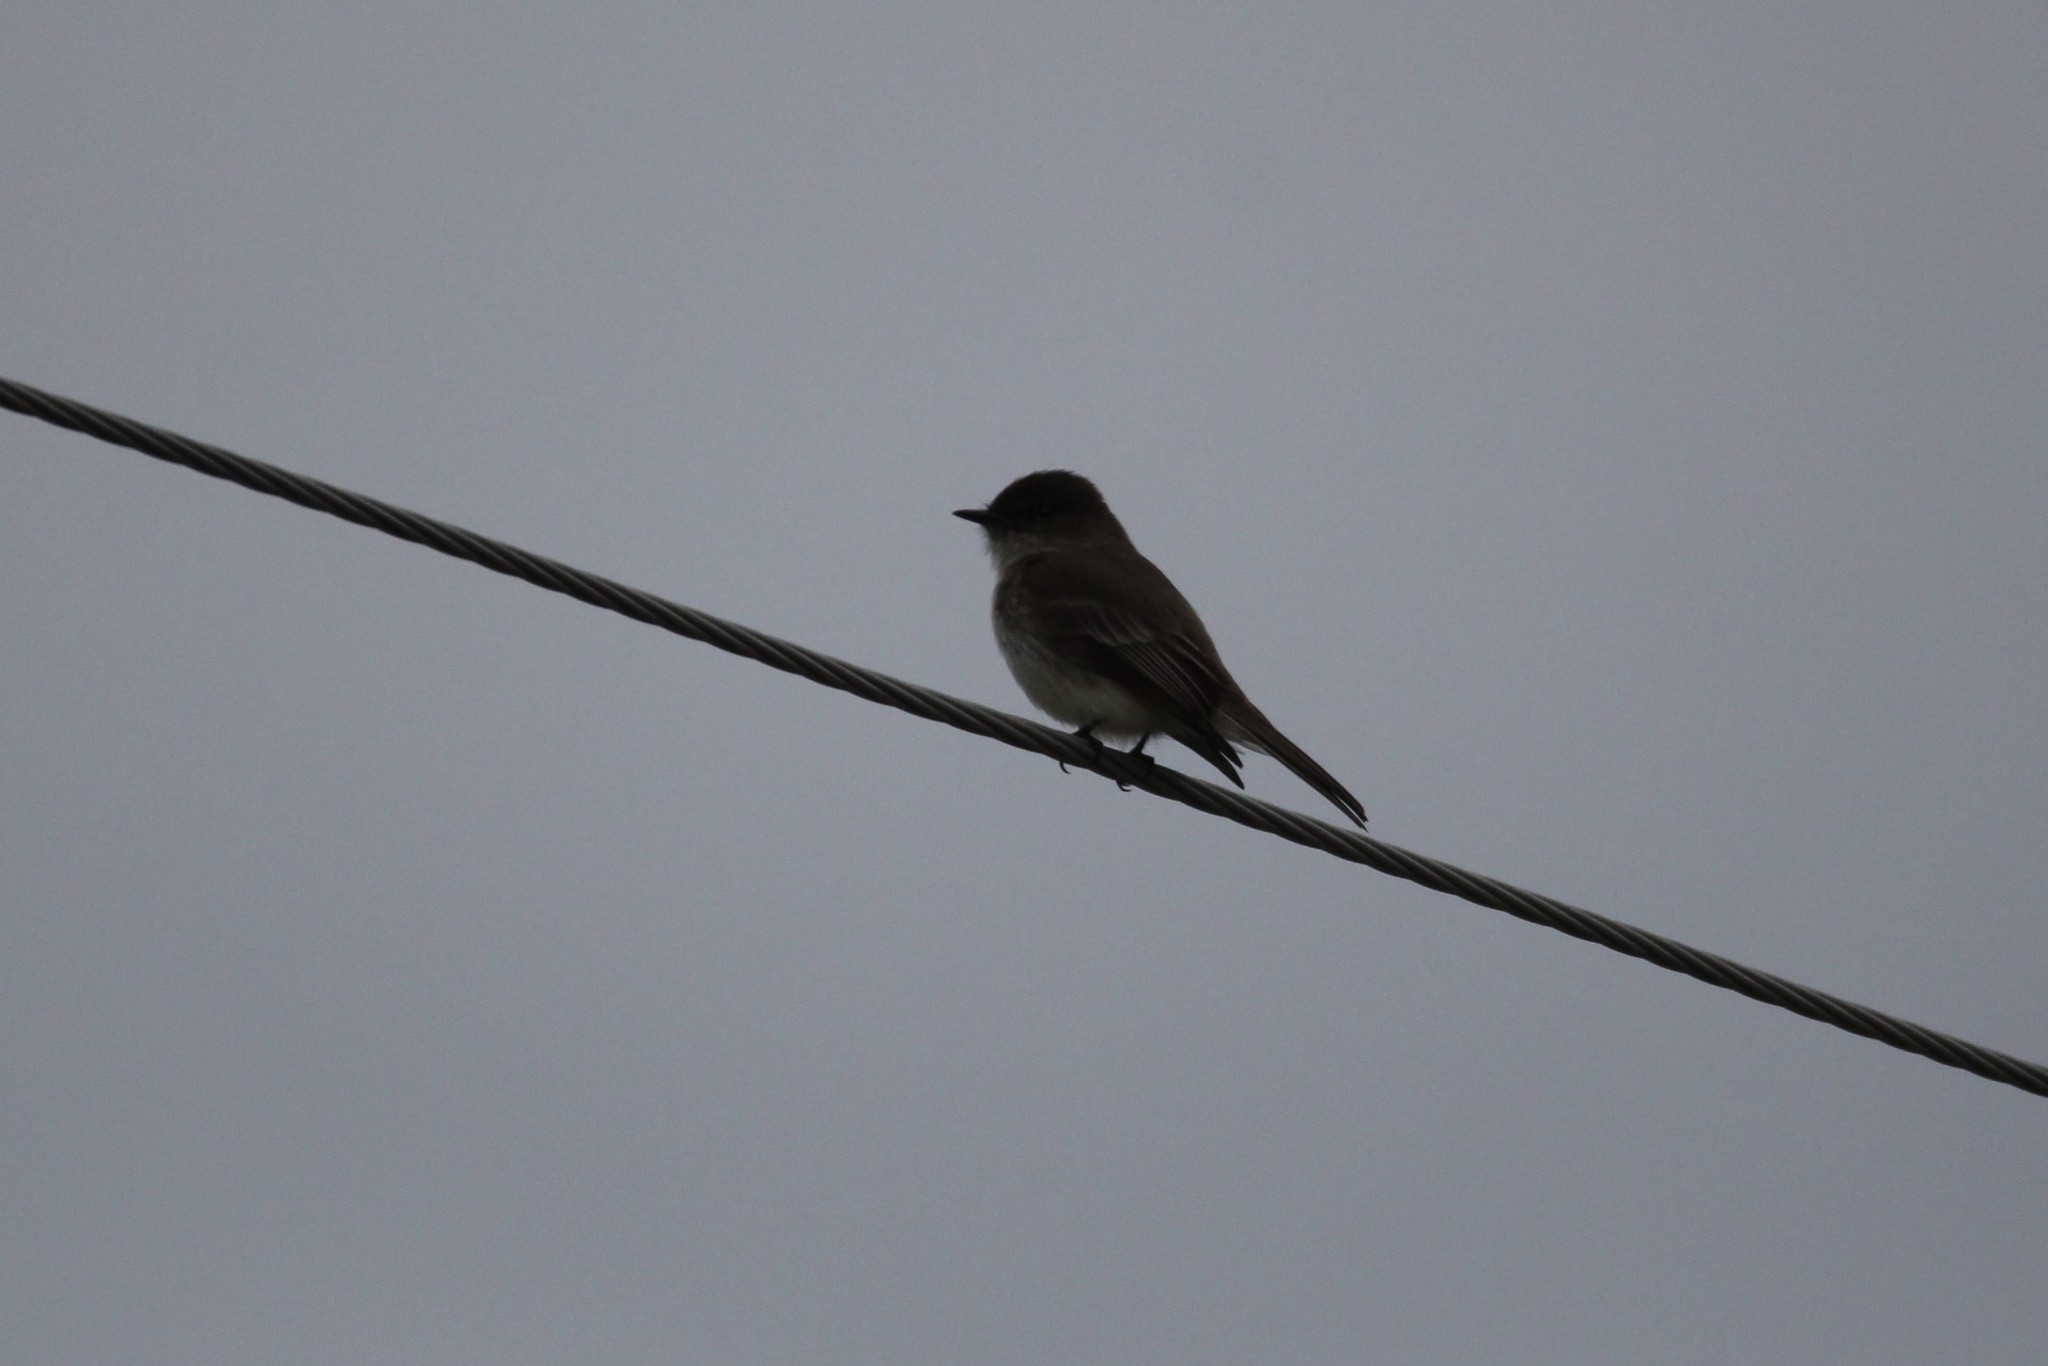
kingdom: Animalia
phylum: Chordata
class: Aves
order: Passeriformes
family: Tyrannidae
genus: Sayornis
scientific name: Sayornis phoebe
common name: Eastern phoebe
